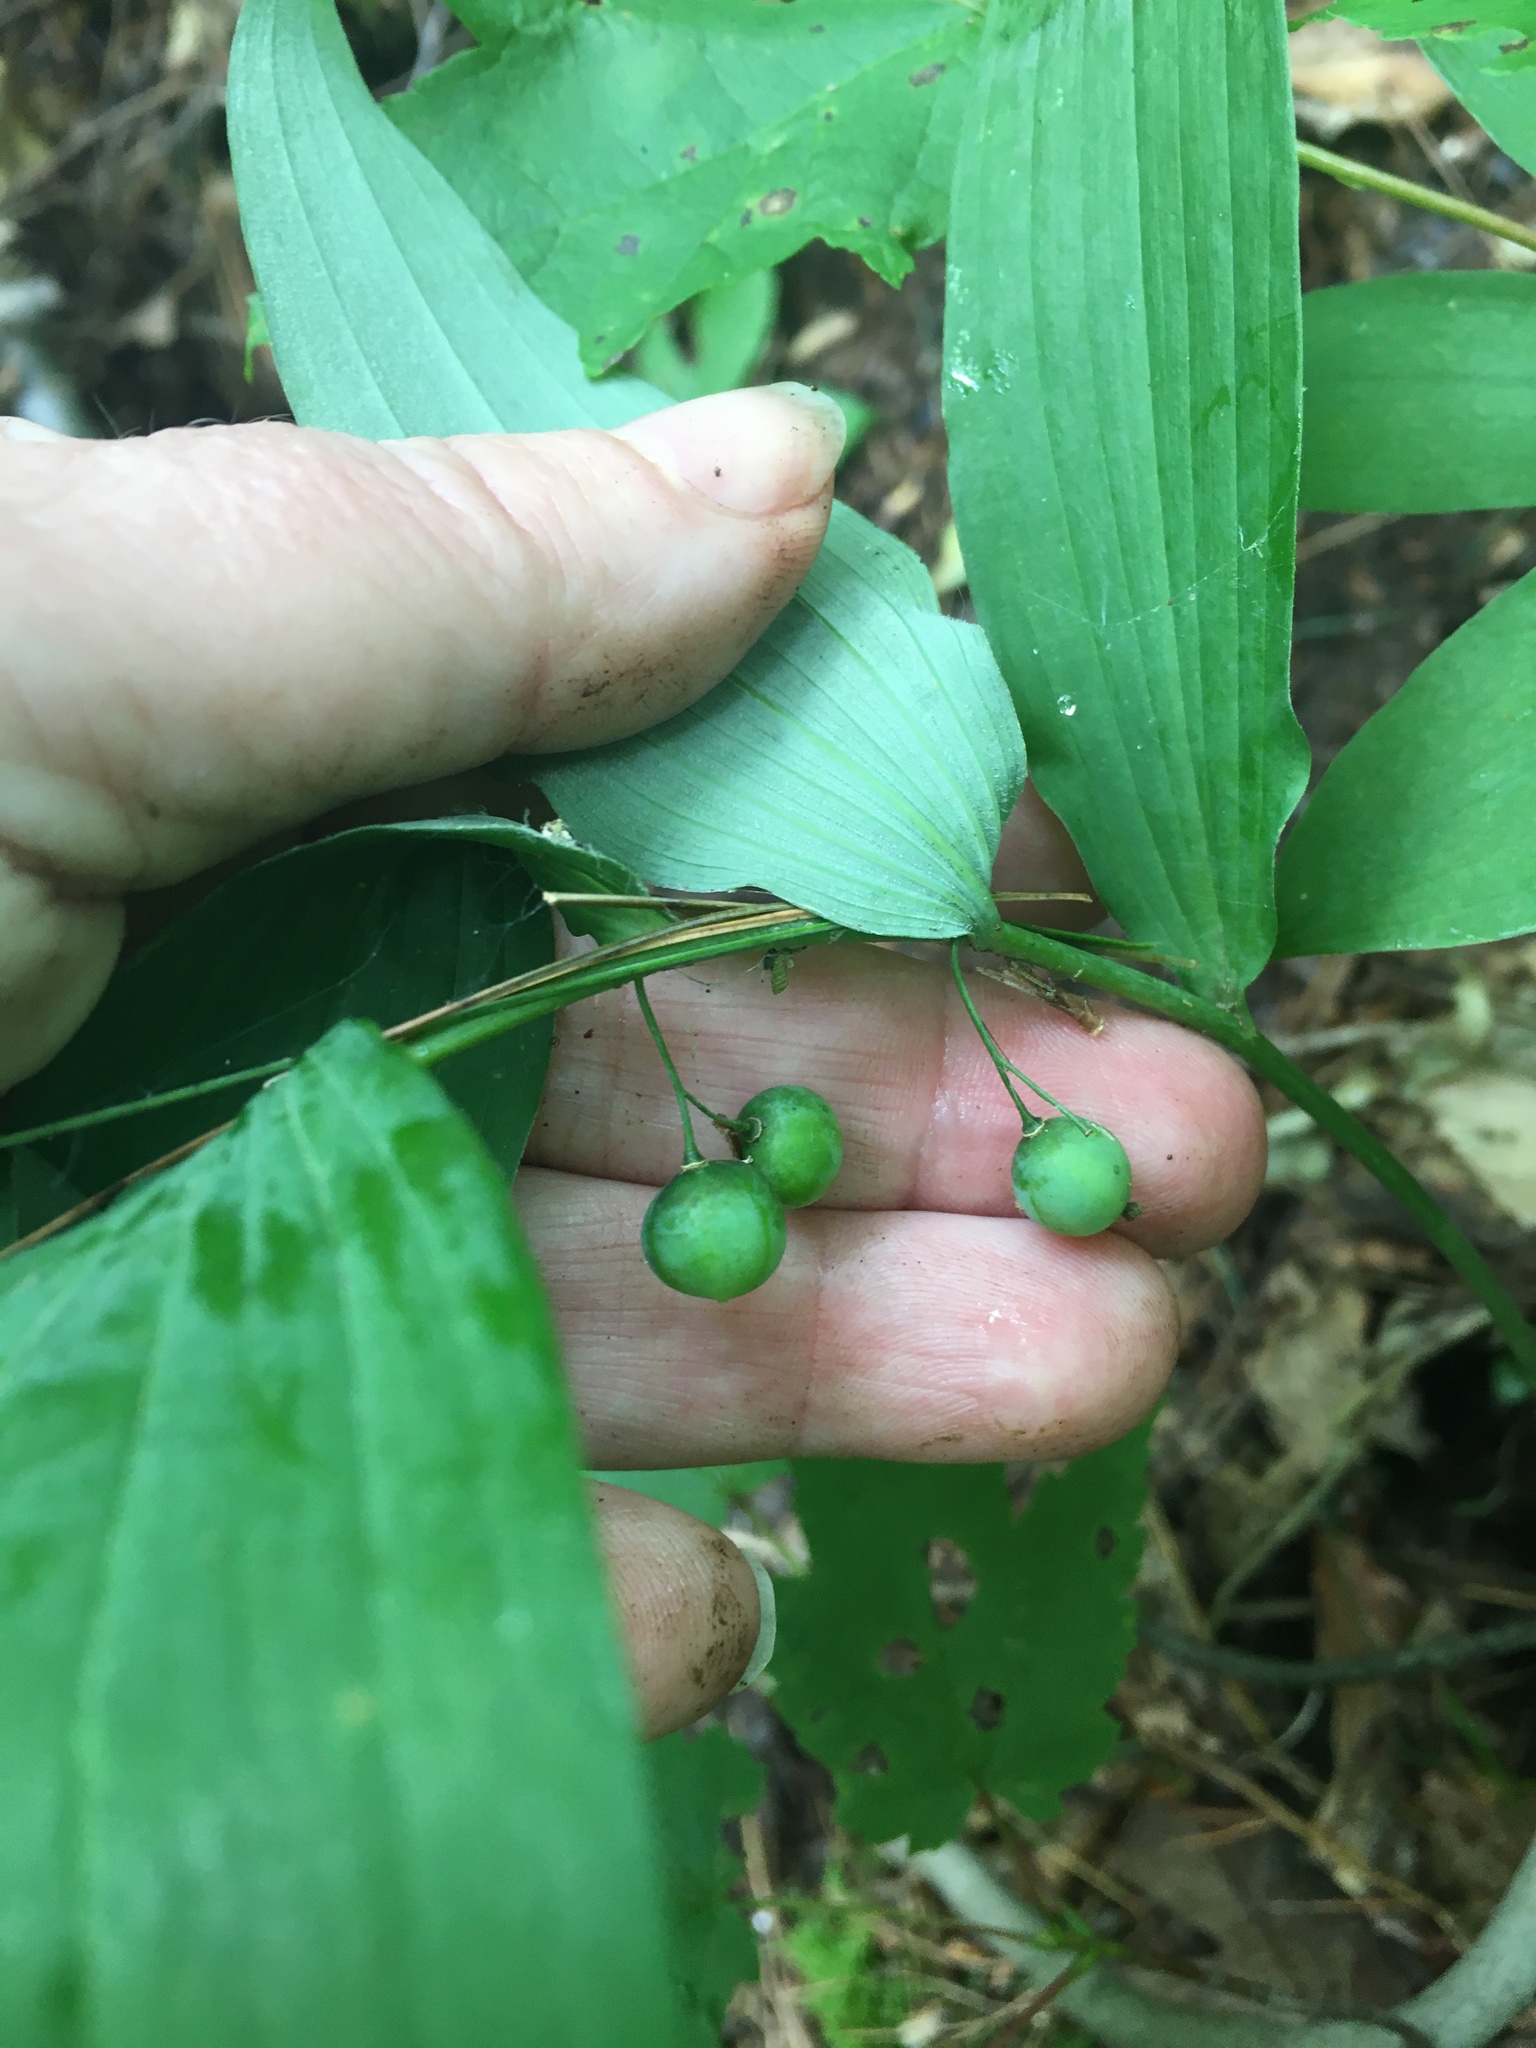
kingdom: Plantae
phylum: Tracheophyta
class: Liliopsida
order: Asparagales
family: Asparagaceae
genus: Polygonatum
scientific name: Polygonatum pubescens
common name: Downy solomon's seal
